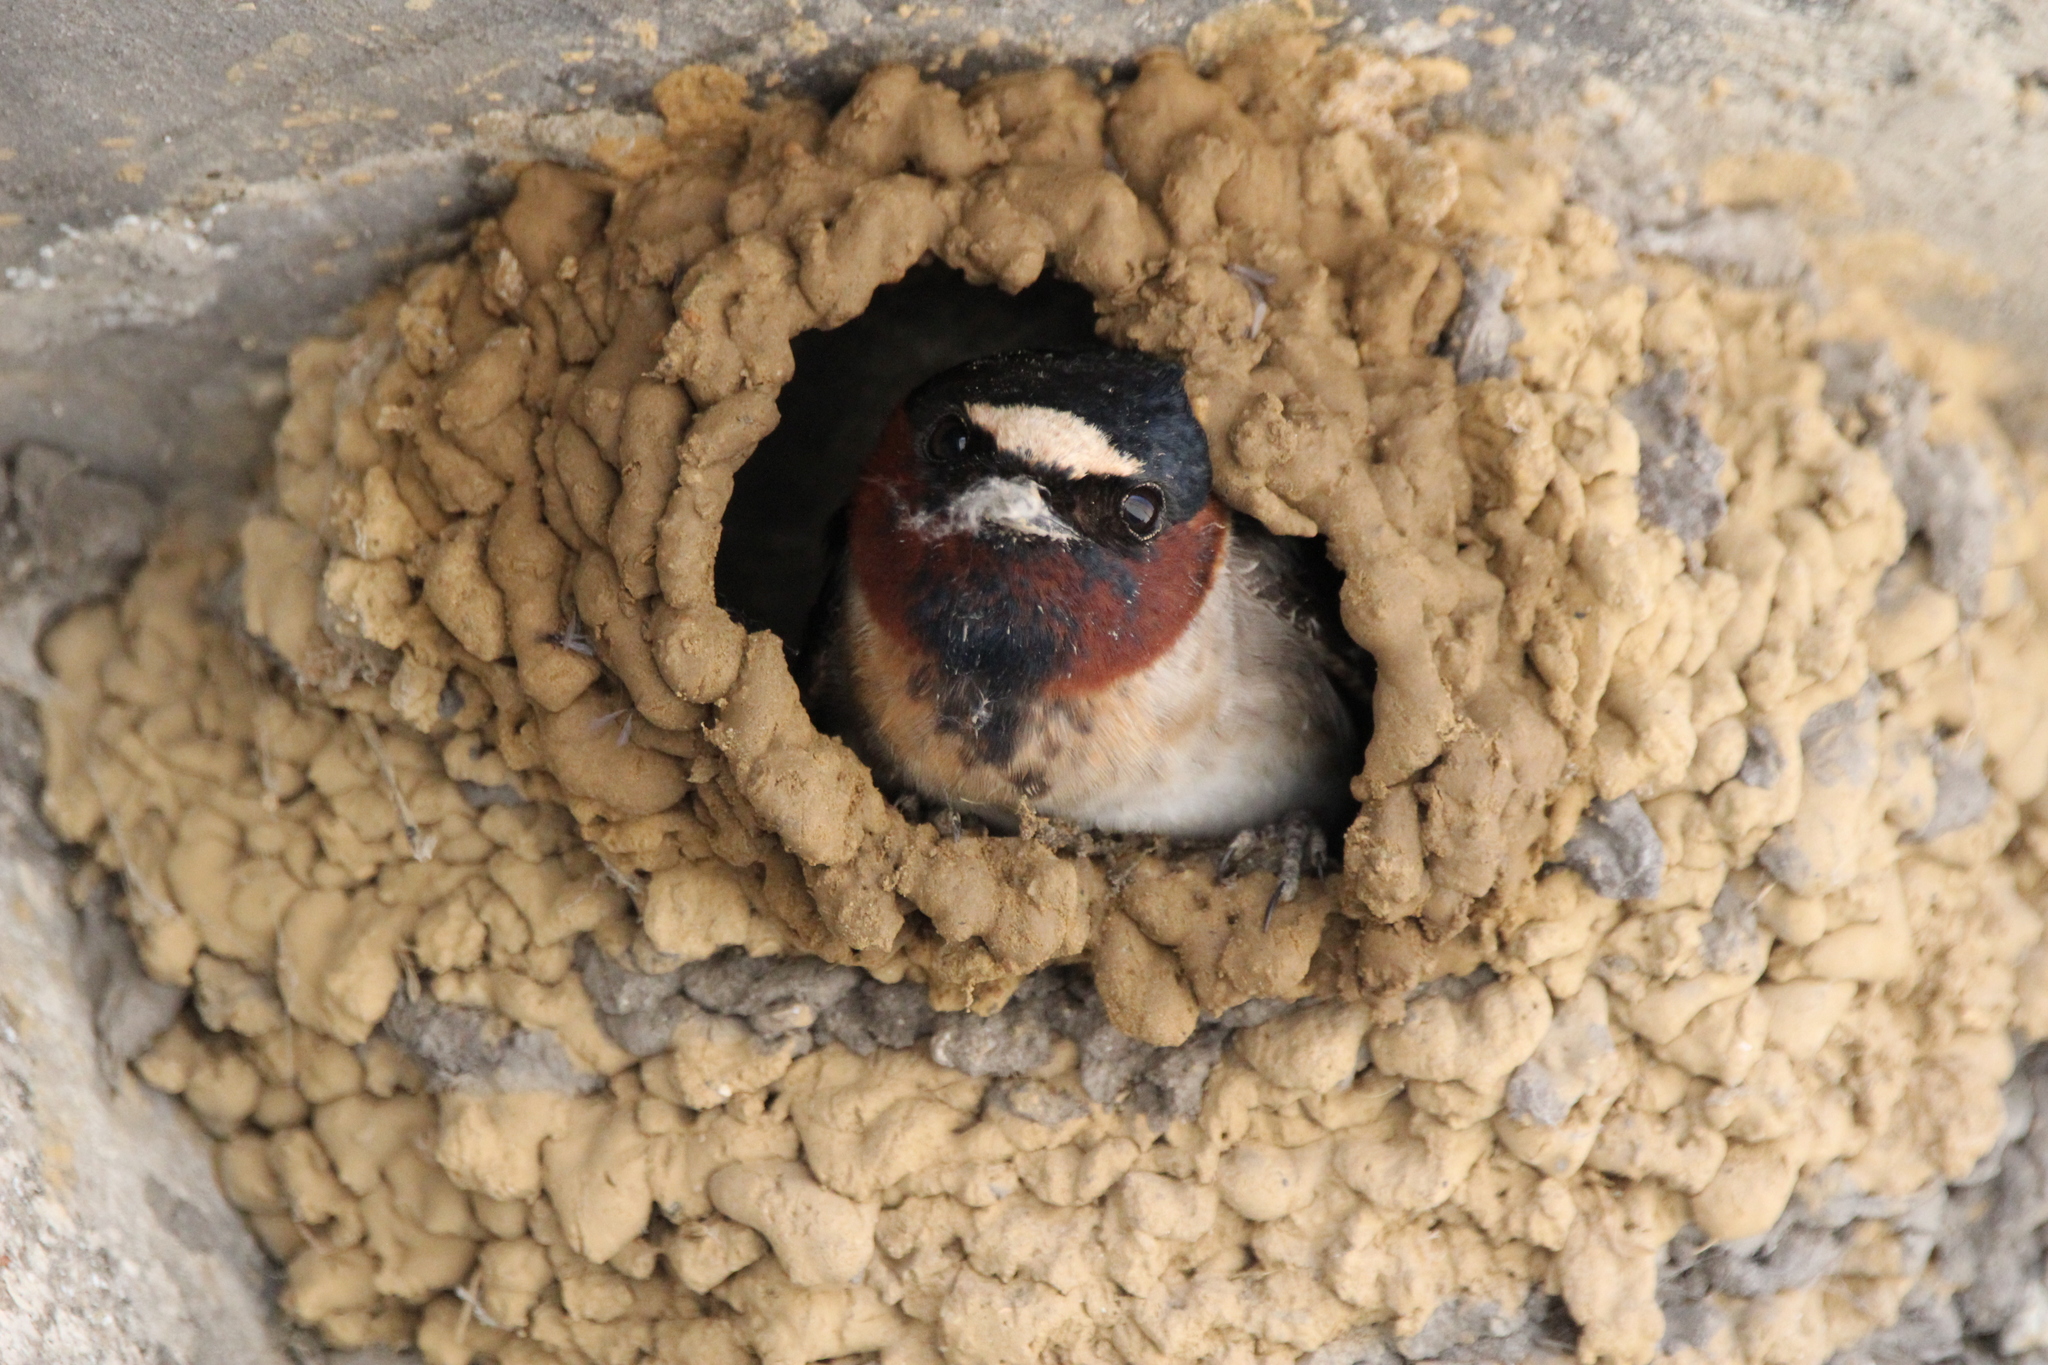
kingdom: Animalia
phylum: Chordata
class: Aves
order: Passeriformes
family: Hirundinidae
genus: Petrochelidon
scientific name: Petrochelidon pyrrhonota
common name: American cliff swallow
